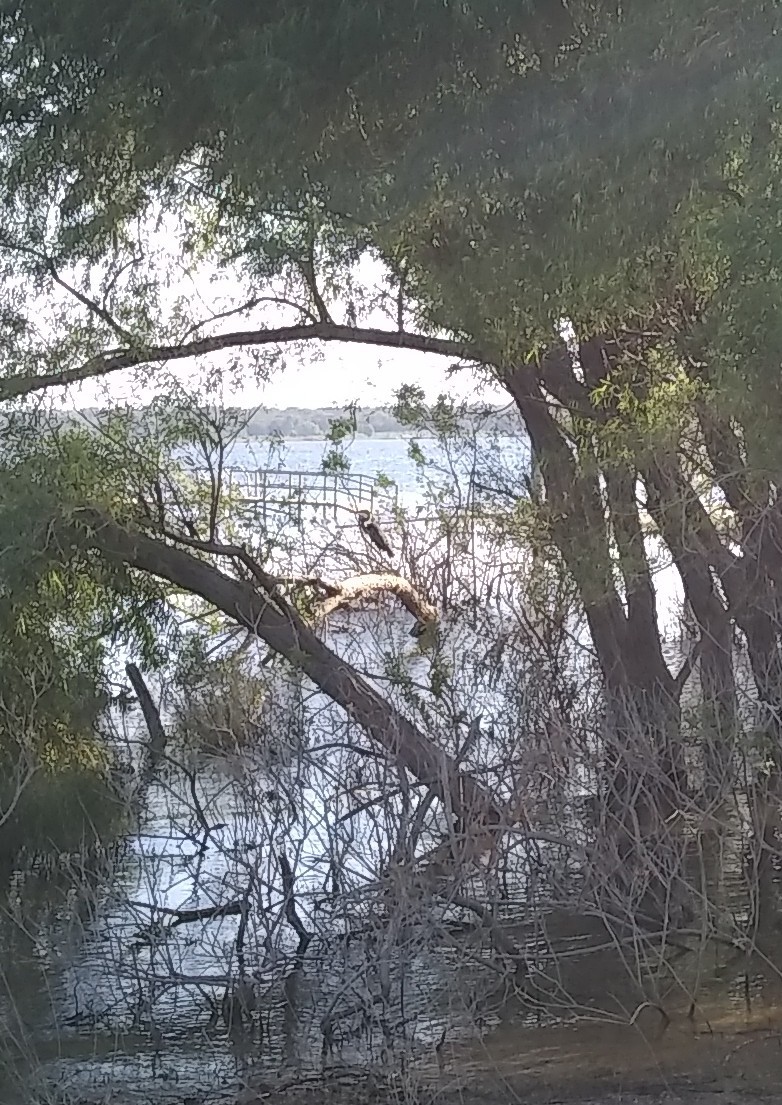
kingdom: Animalia
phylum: Chordata
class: Aves
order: Pelecaniformes
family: Ardeidae
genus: Ardea
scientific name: Ardea herodias
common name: Great blue heron
